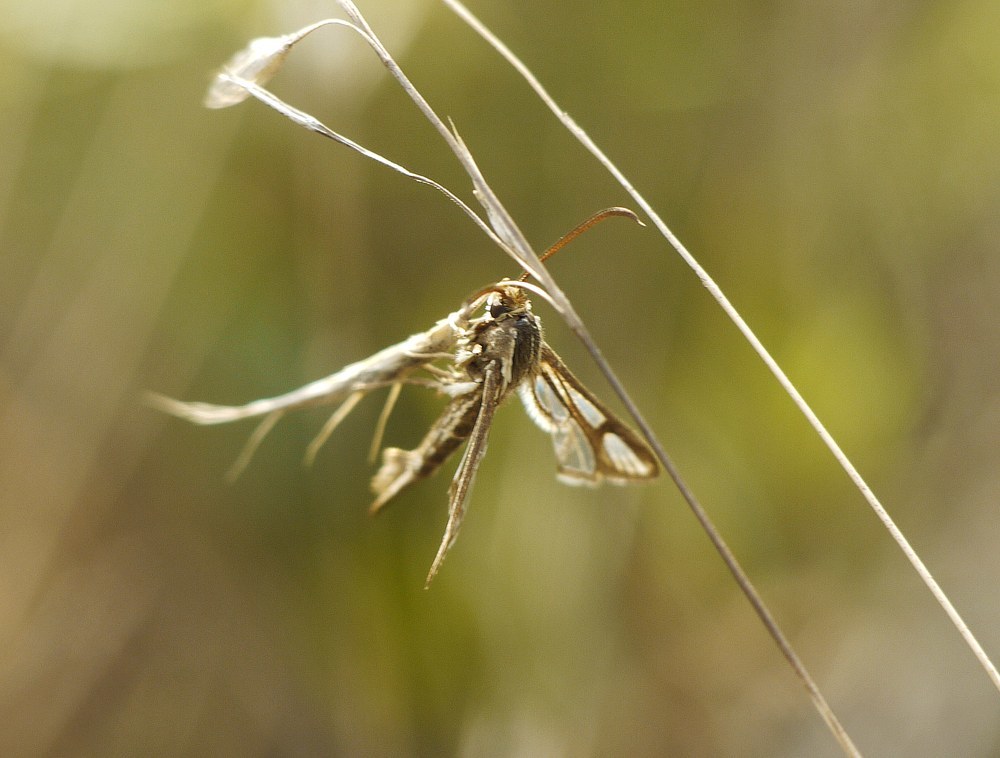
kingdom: Animalia
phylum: Arthropoda
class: Insecta
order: Lepidoptera
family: Sesiidae
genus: Chamaesphecia
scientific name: Chamaesphecia leucopsiformis
